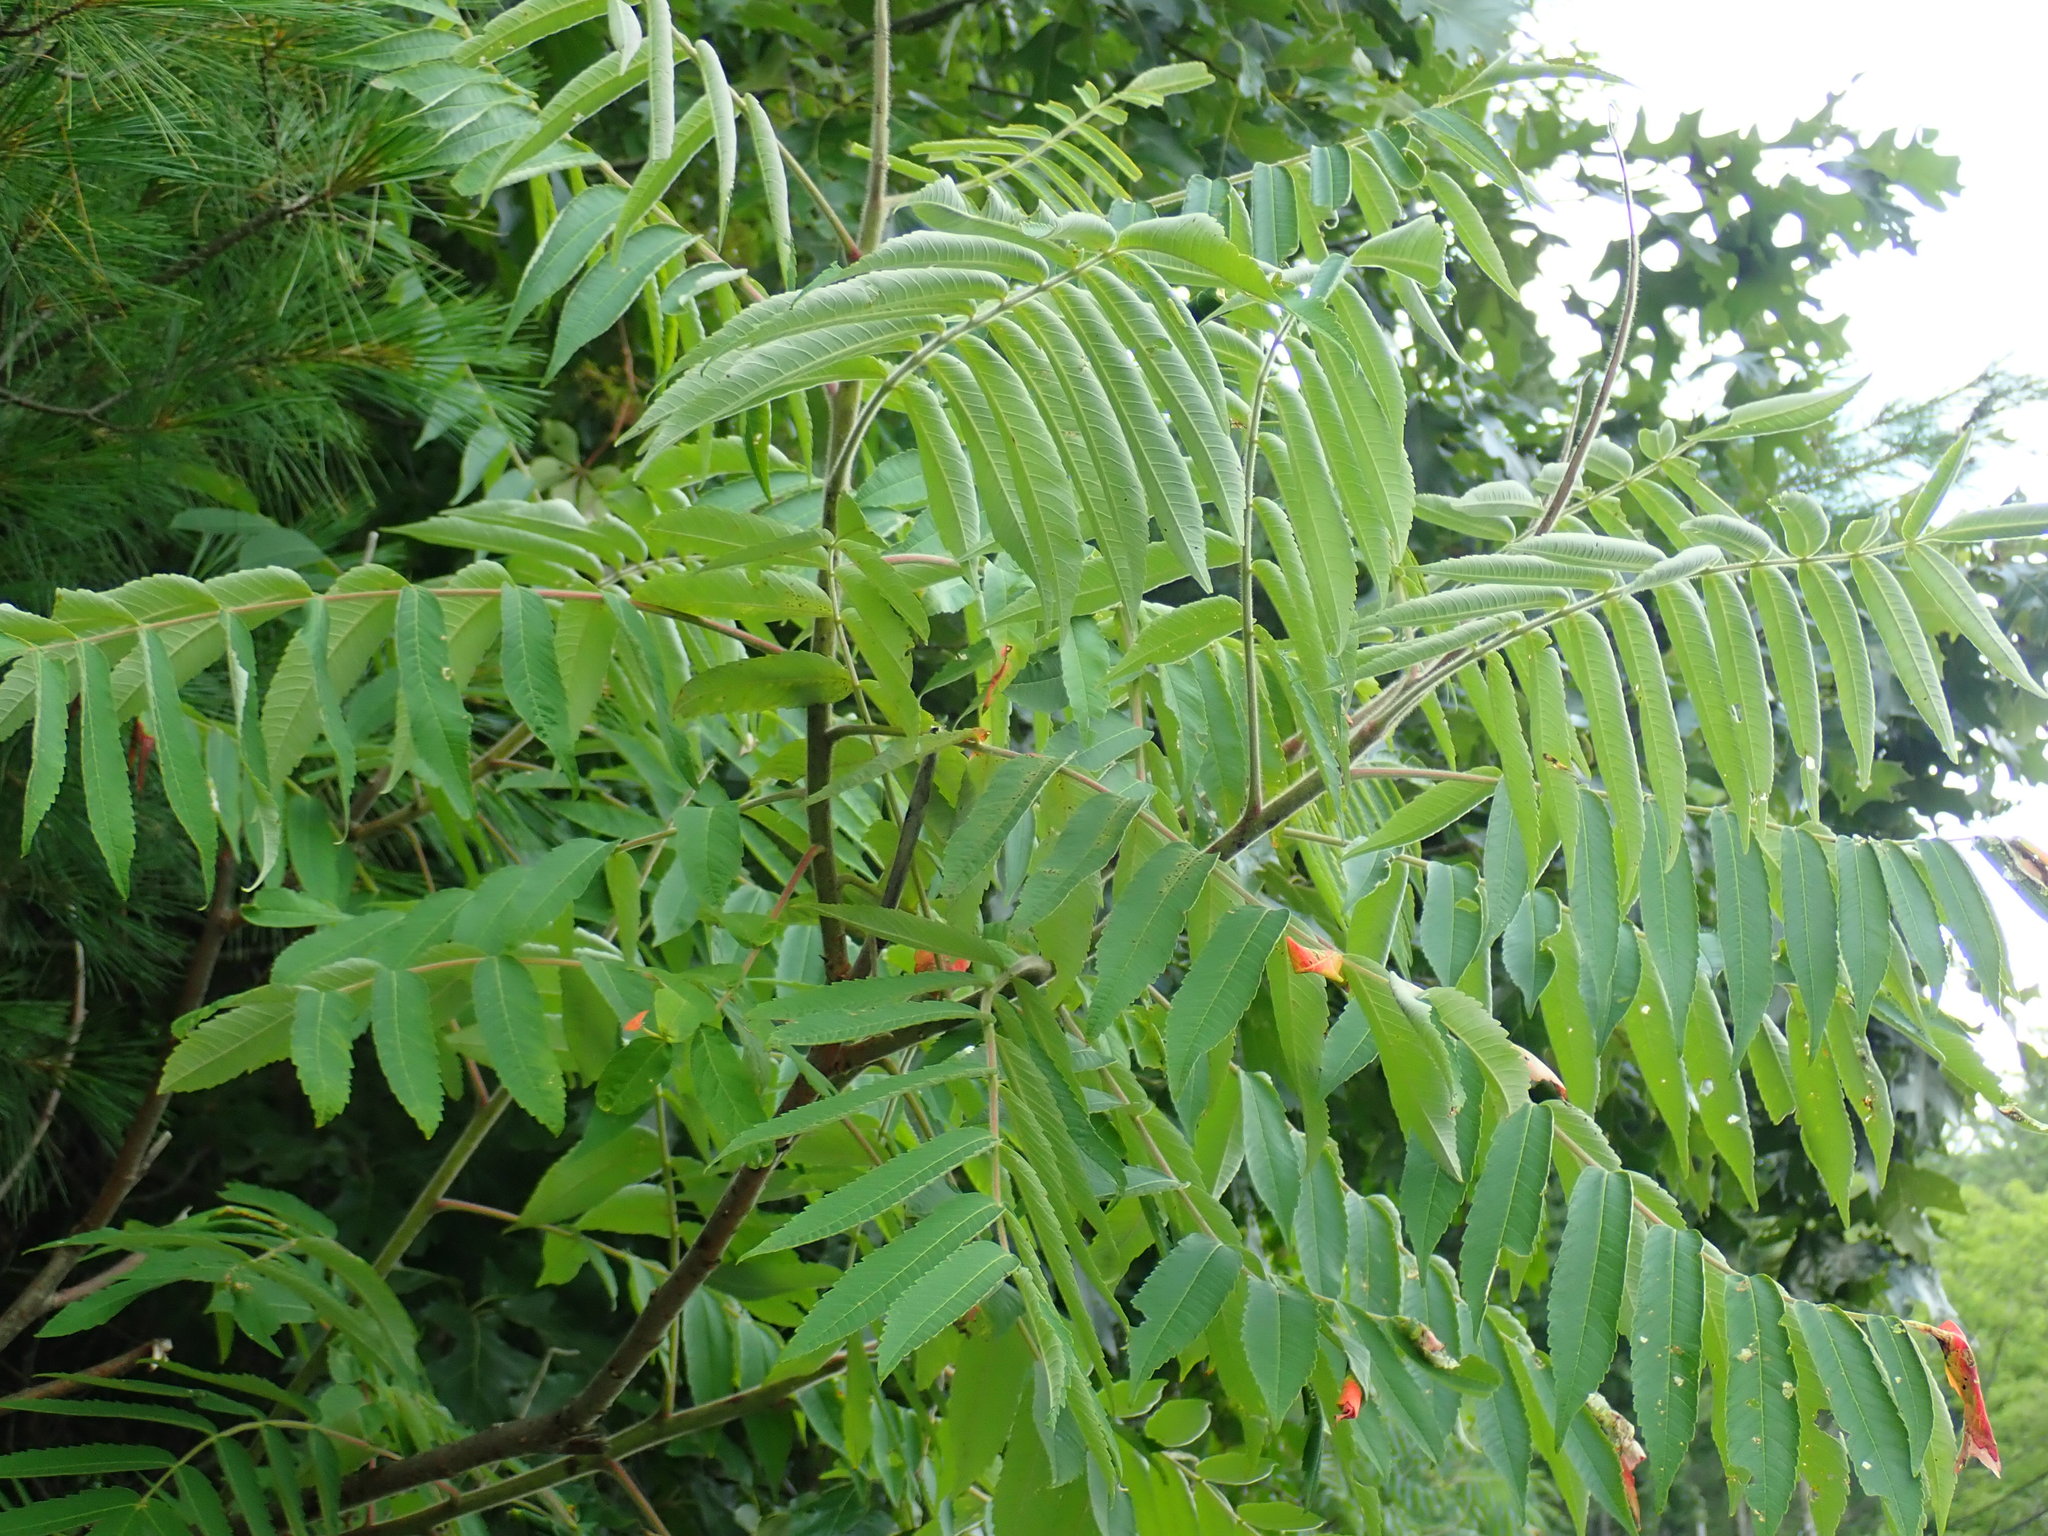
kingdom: Plantae
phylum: Tracheophyta
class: Magnoliopsida
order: Sapindales
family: Anacardiaceae
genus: Rhus
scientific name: Rhus typhina
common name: Staghorn sumac
